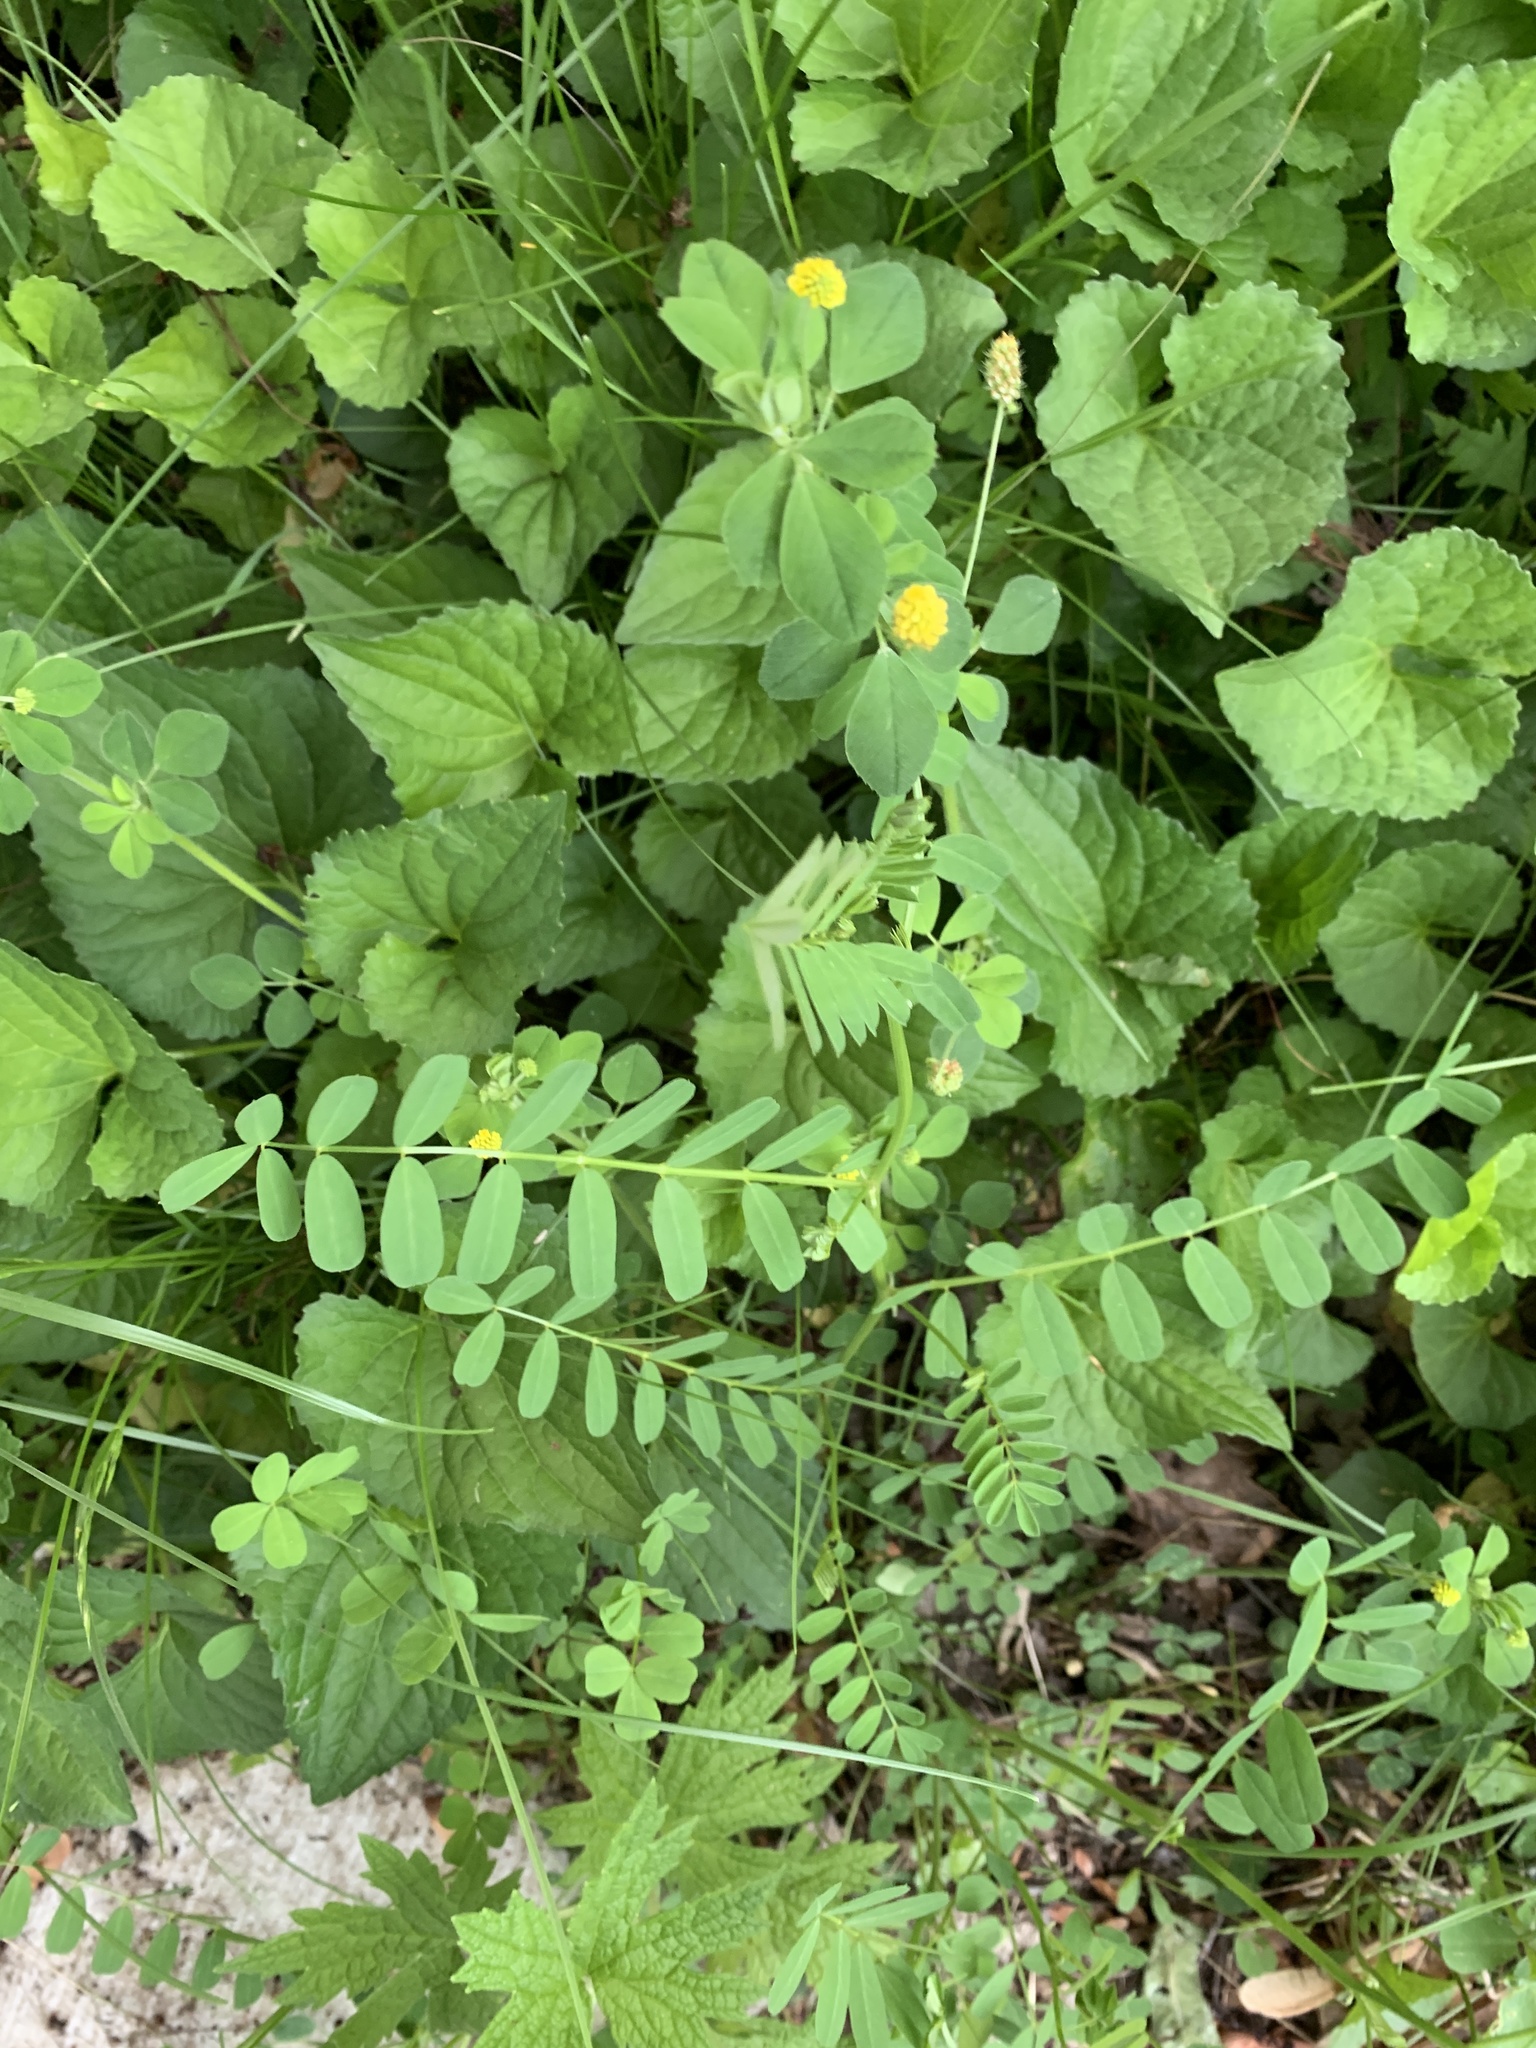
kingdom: Plantae
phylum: Tracheophyta
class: Magnoliopsida
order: Fabales
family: Fabaceae
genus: Medicago
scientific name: Medicago lupulina
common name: Black medick
